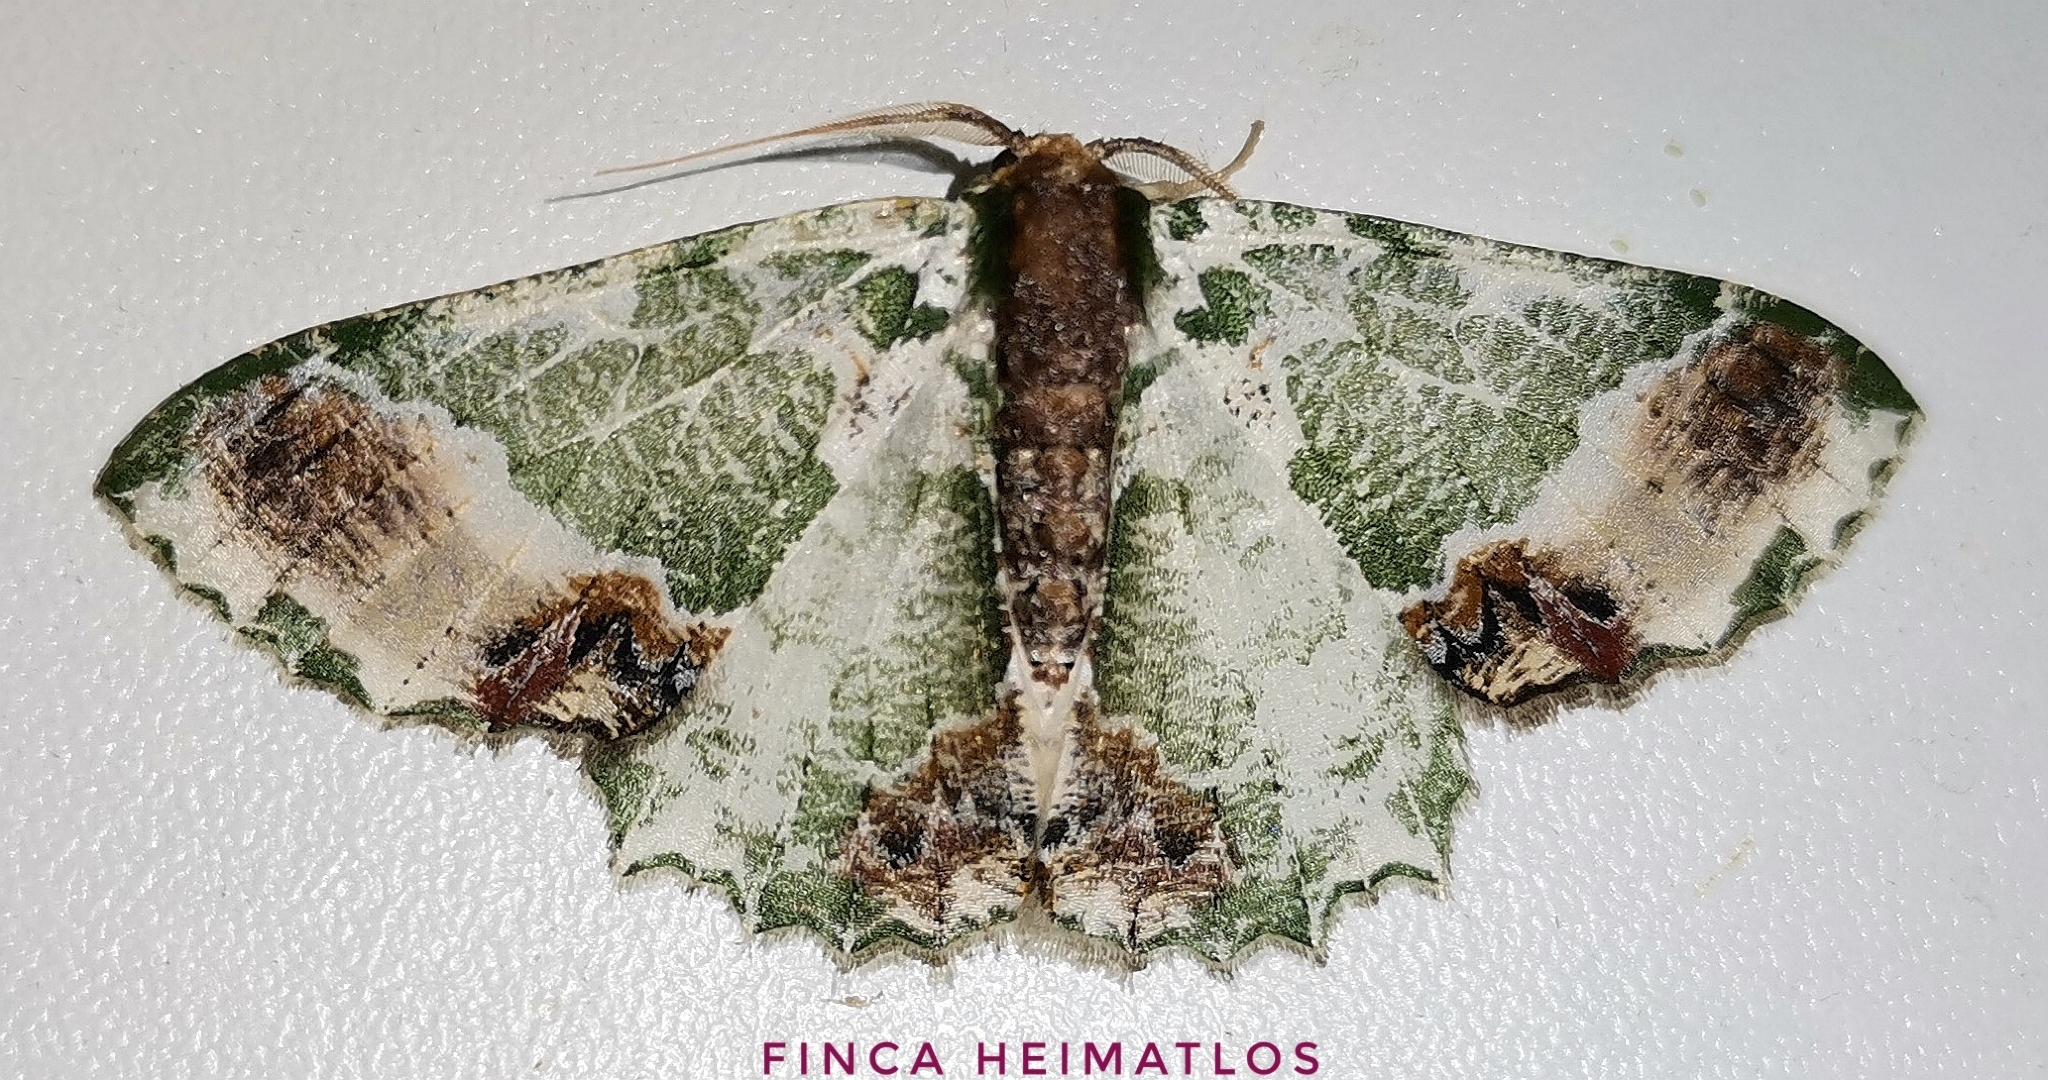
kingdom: Animalia
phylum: Arthropoda
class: Insecta
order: Lepidoptera
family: Geometridae
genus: Lophochorista
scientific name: Lophochorista ockendeni
